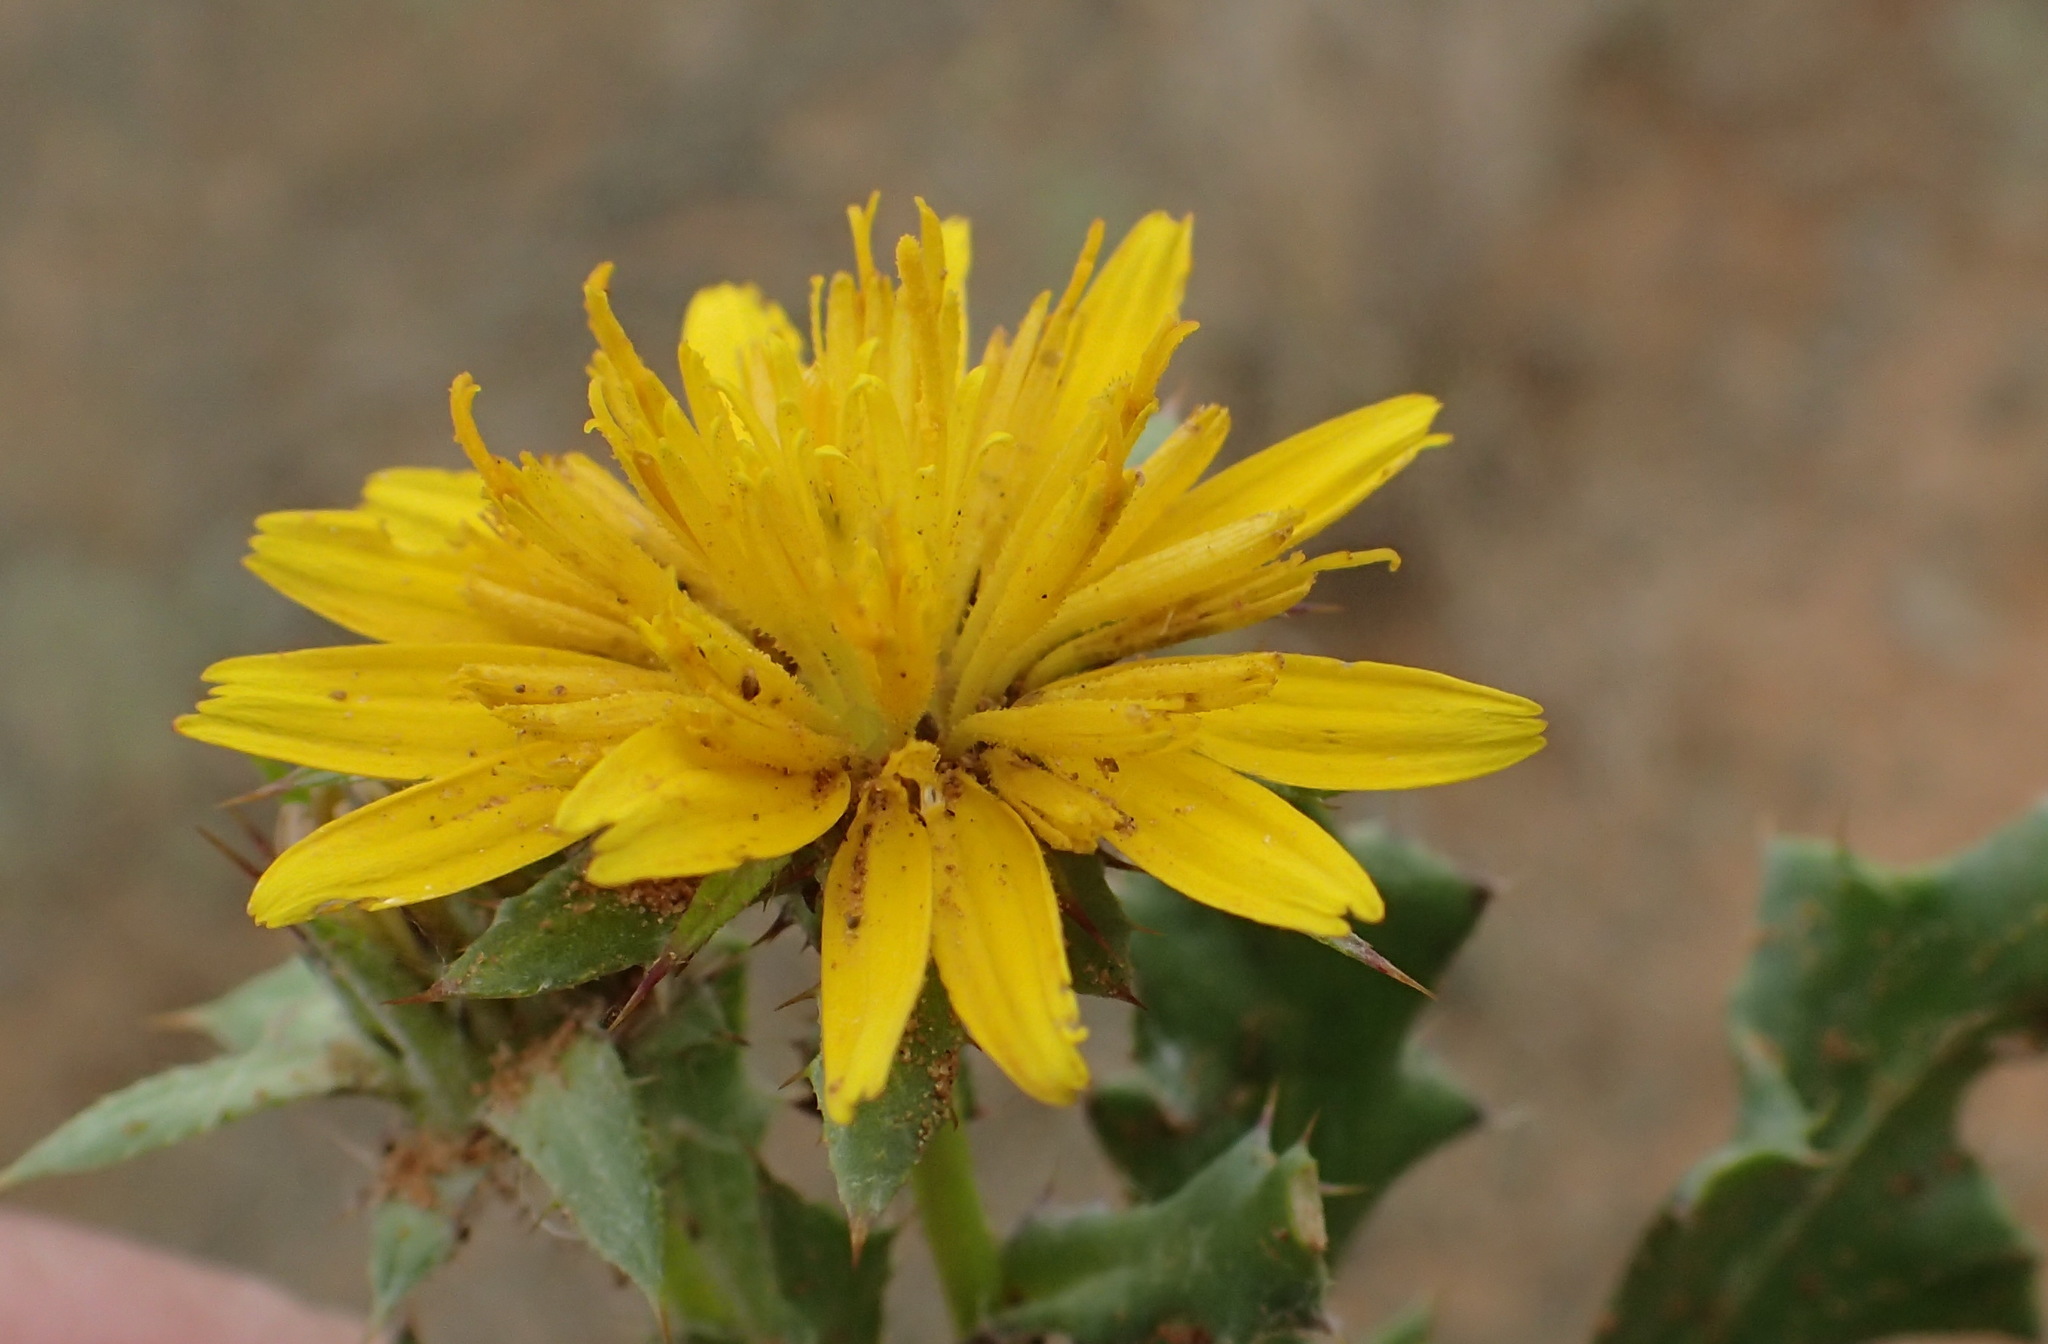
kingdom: Plantae
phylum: Tracheophyta
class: Magnoliopsida
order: Asterales
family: Asteraceae
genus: Cuspidia
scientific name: Cuspidia cernua
